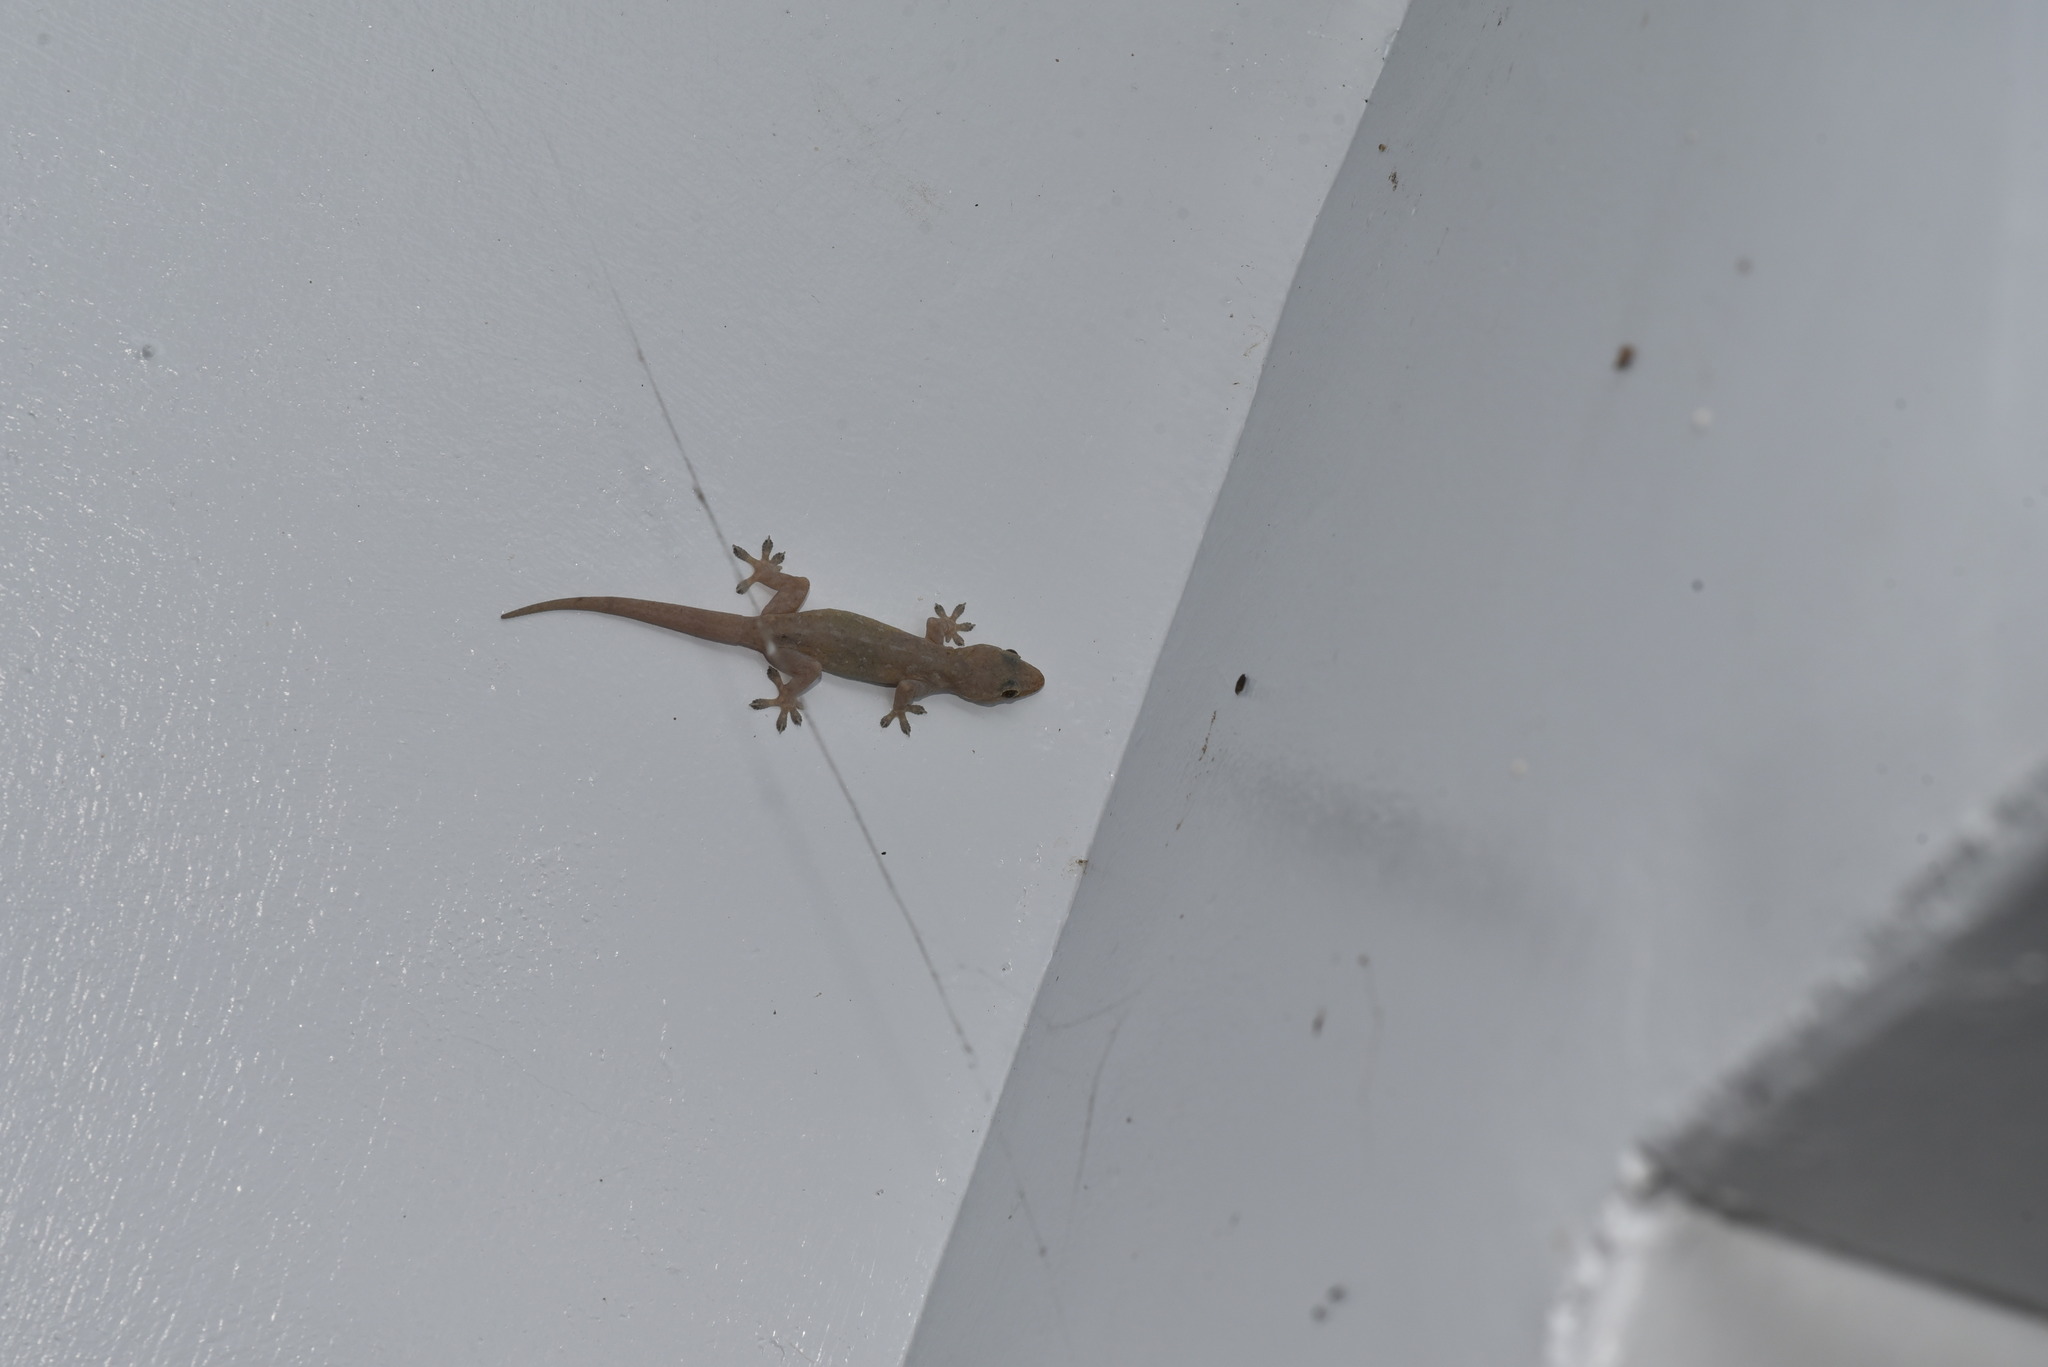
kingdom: Animalia
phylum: Chordata
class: Squamata
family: Gekkonidae
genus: Hemidactylus
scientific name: Hemidactylus frenatus
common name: Common house gecko
